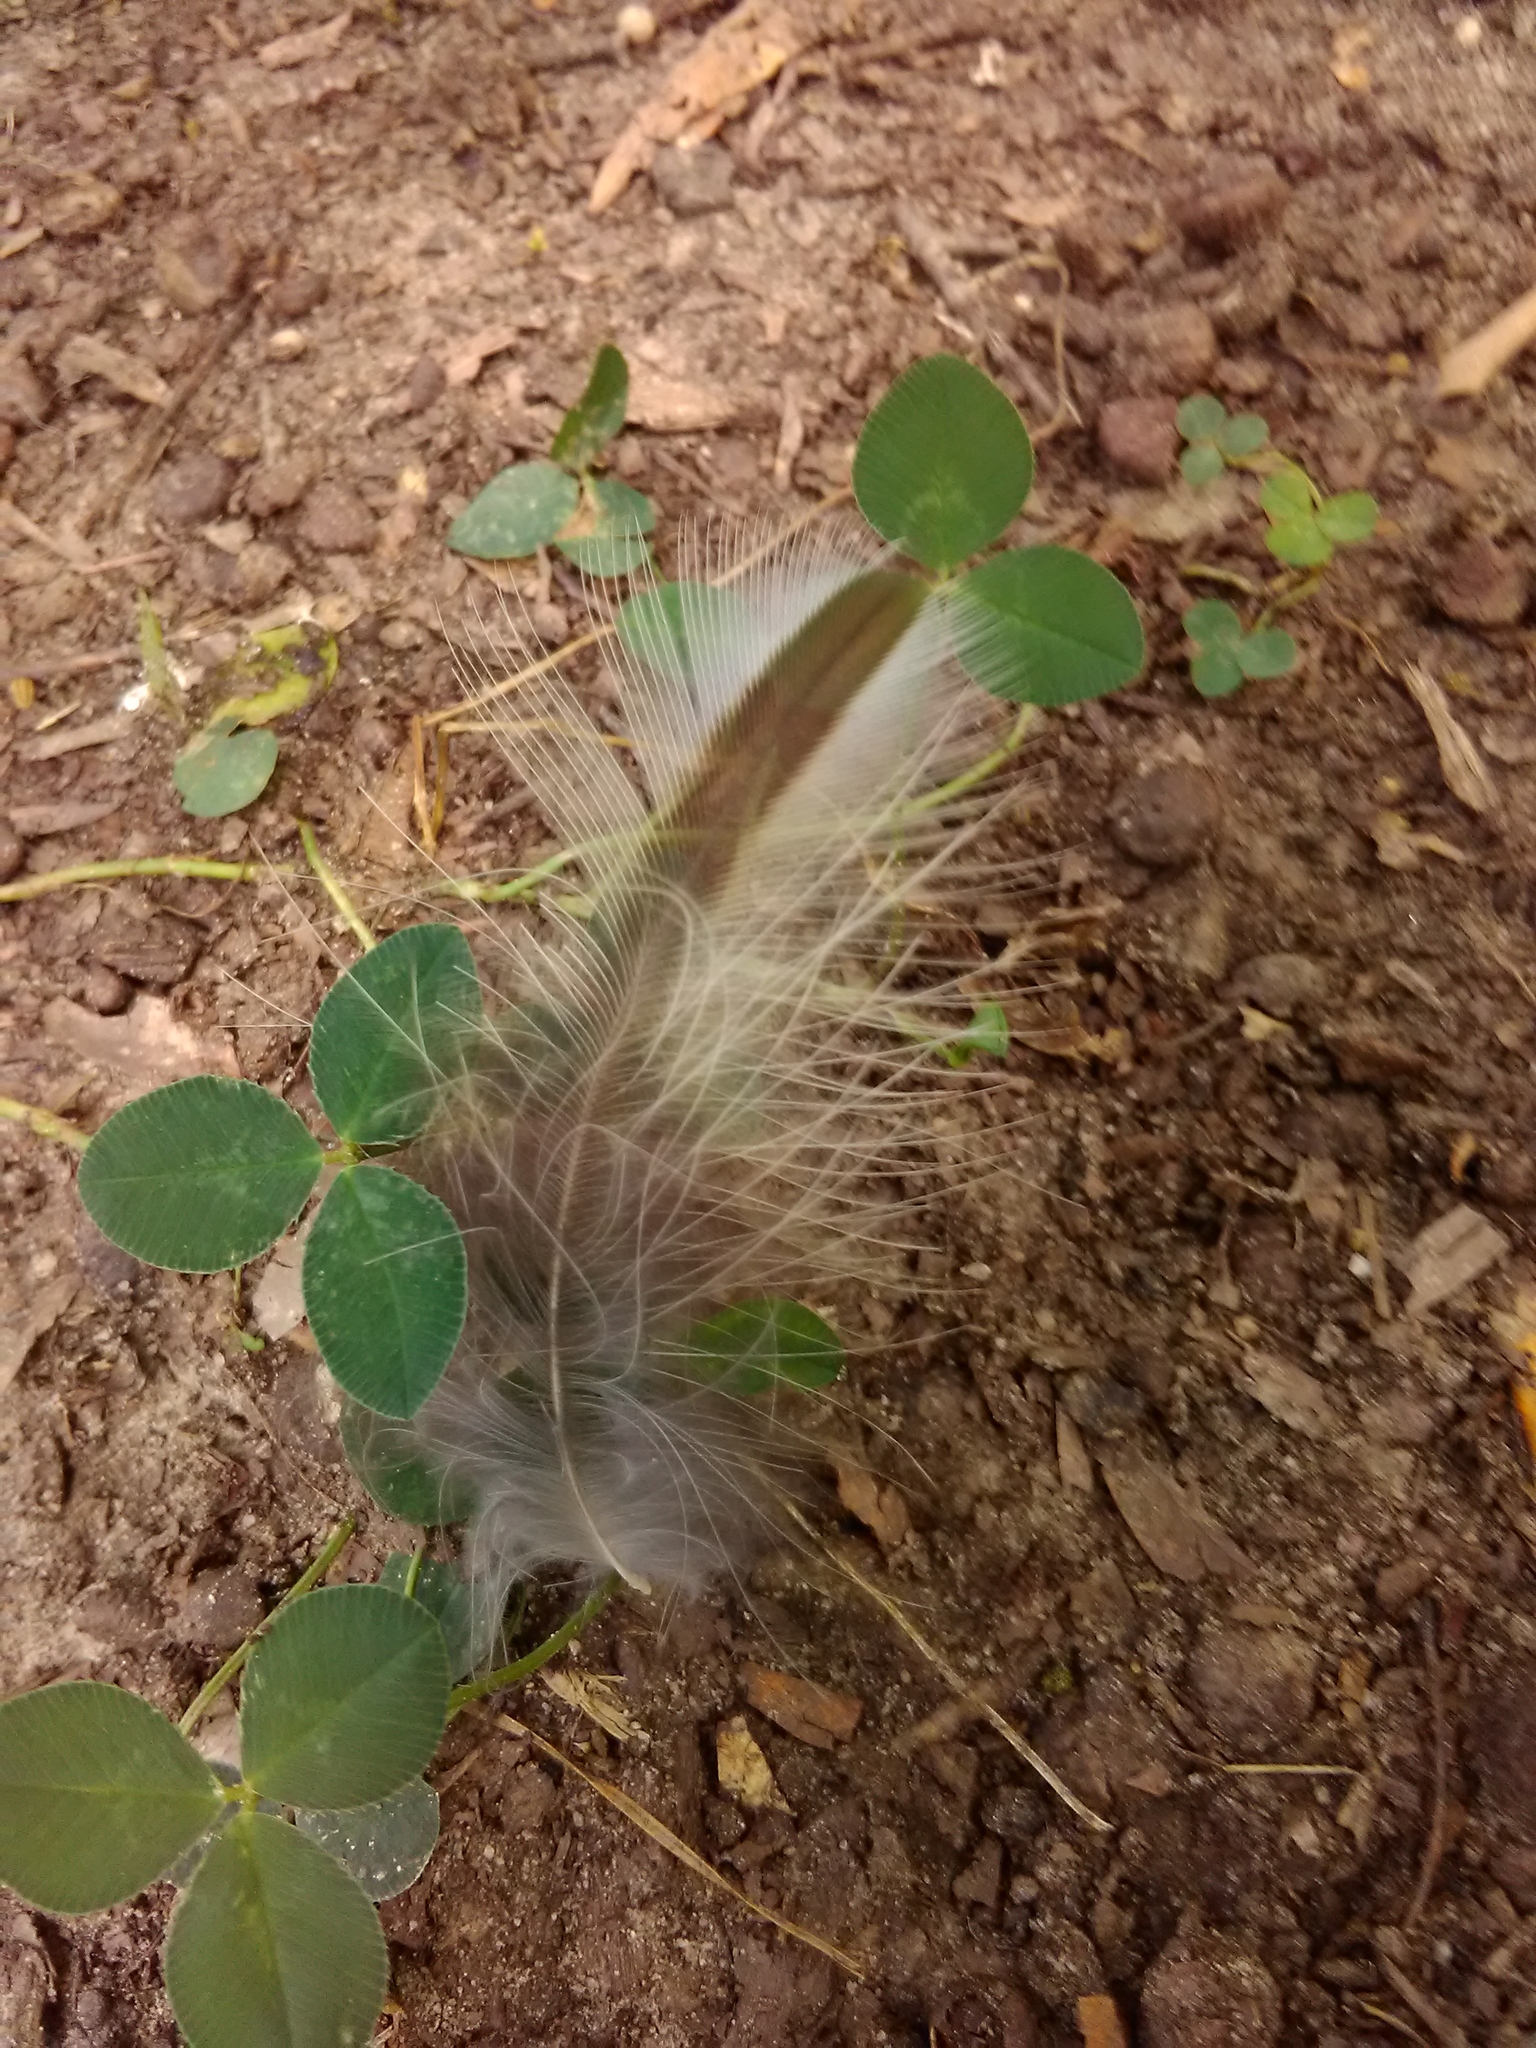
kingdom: Animalia
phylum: Chordata
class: Aves
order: Strigiformes
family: Strigidae
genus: Strix
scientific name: Strix varia
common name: Barred owl
